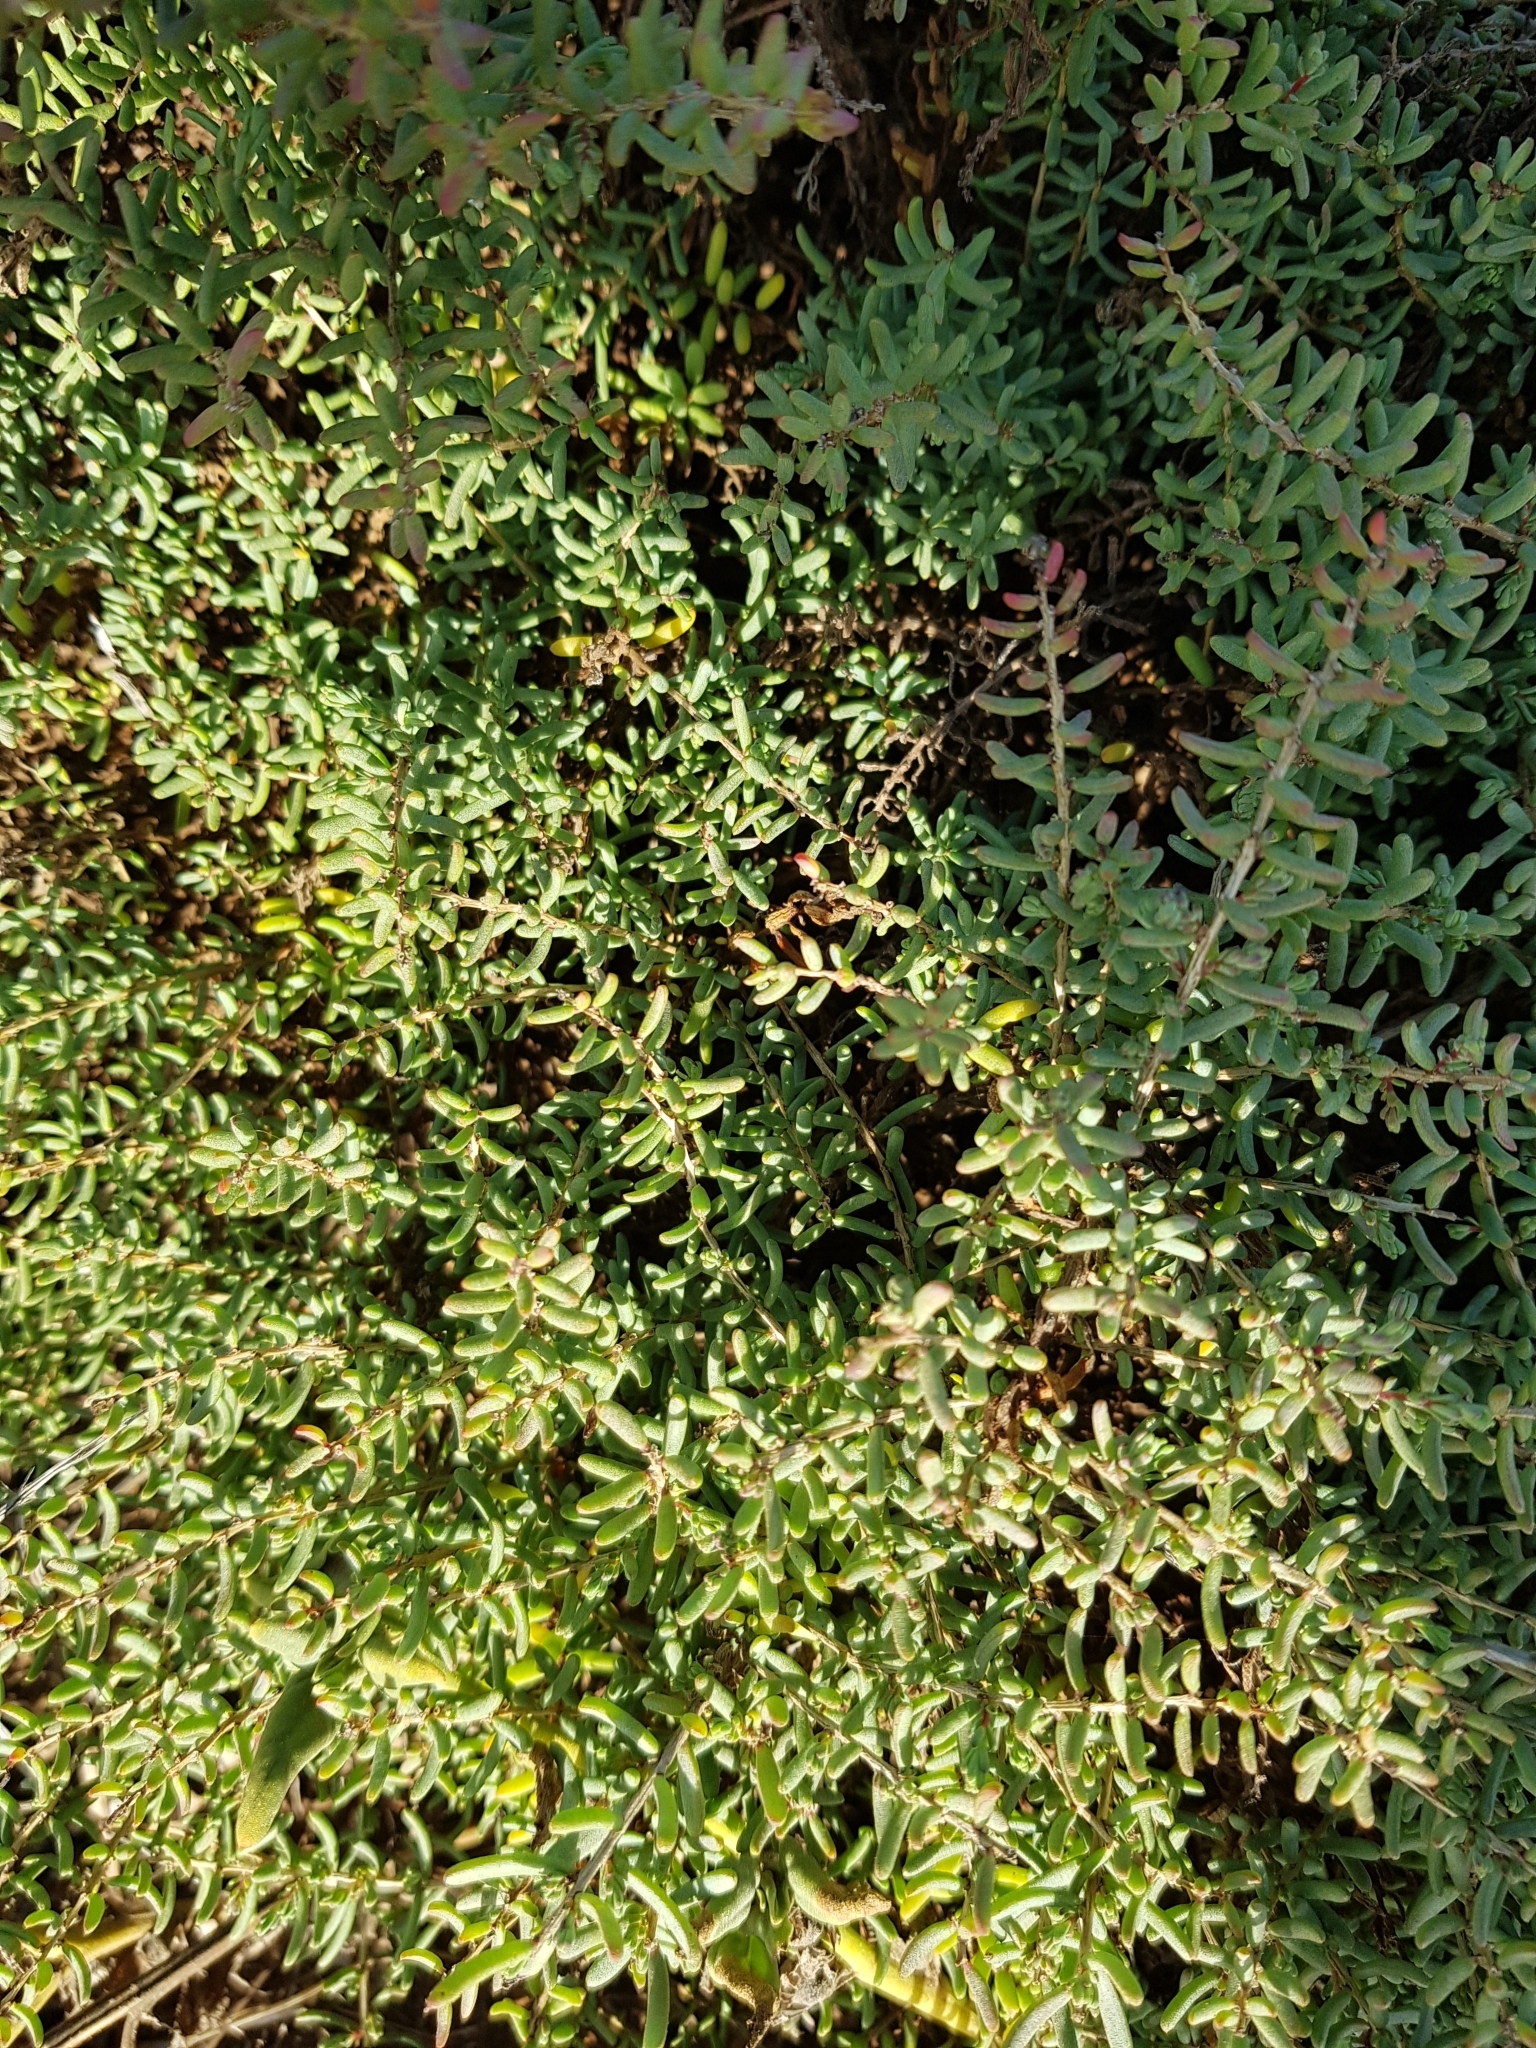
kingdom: Plantae
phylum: Tracheophyta
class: Magnoliopsida
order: Caryophyllales
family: Amaranthaceae
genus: Suaeda
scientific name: Suaeda vera
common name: Shrubby sea-blite
